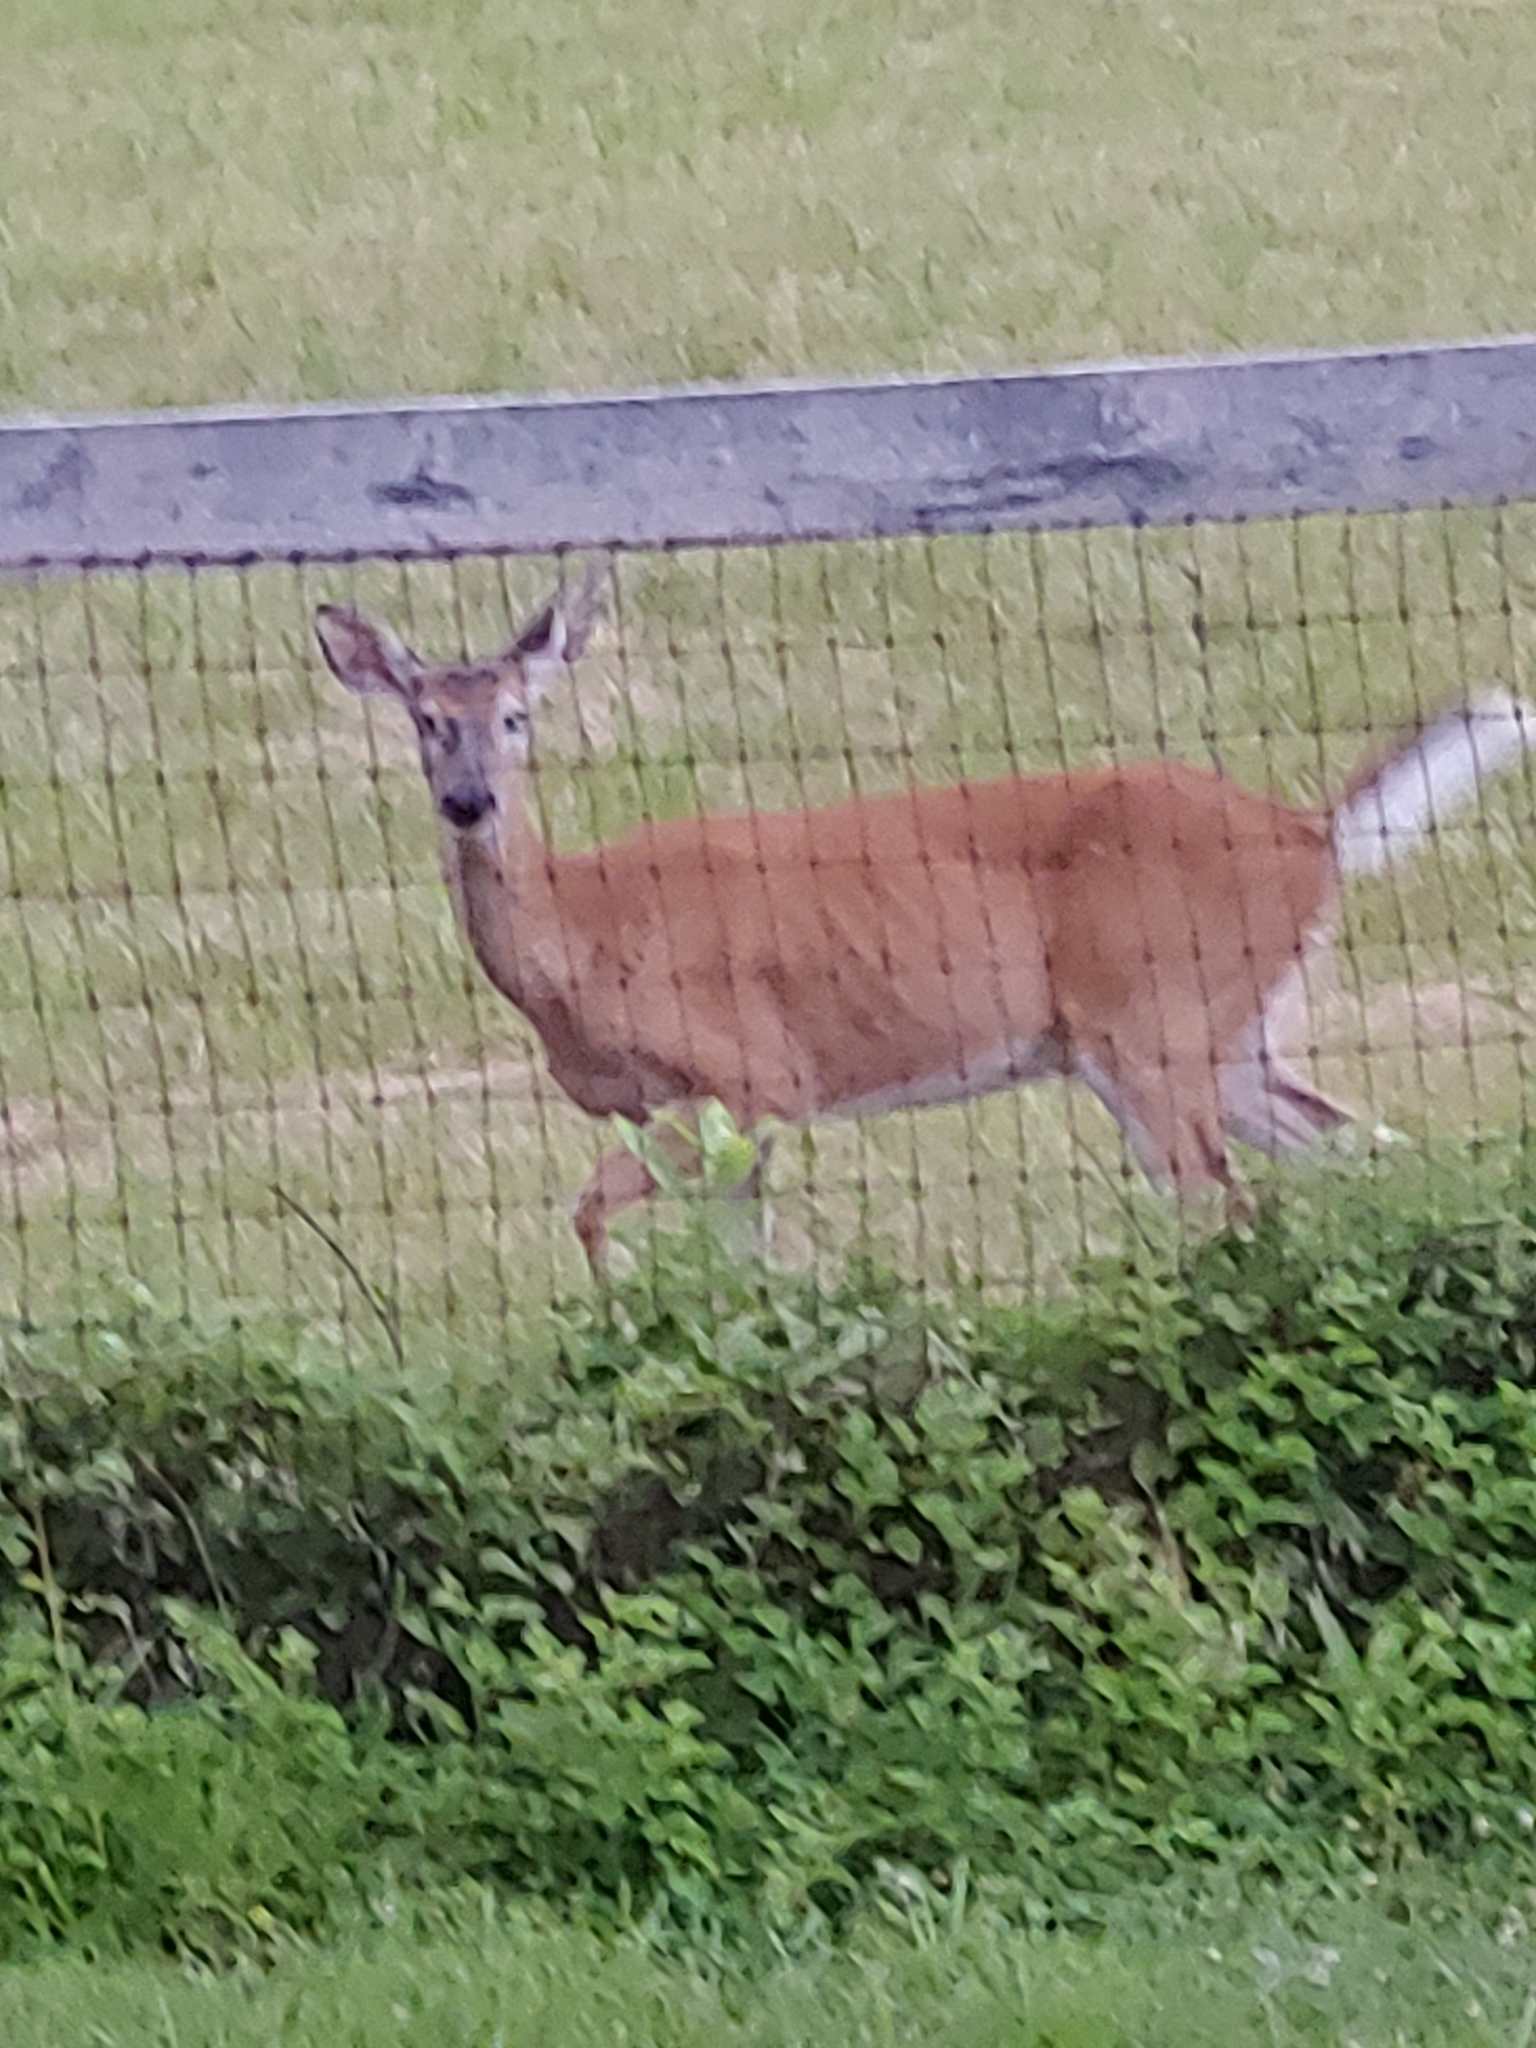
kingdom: Animalia
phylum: Chordata
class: Mammalia
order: Artiodactyla
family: Cervidae
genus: Odocoileus
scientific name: Odocoileus virginianus
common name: White-tailed deer
